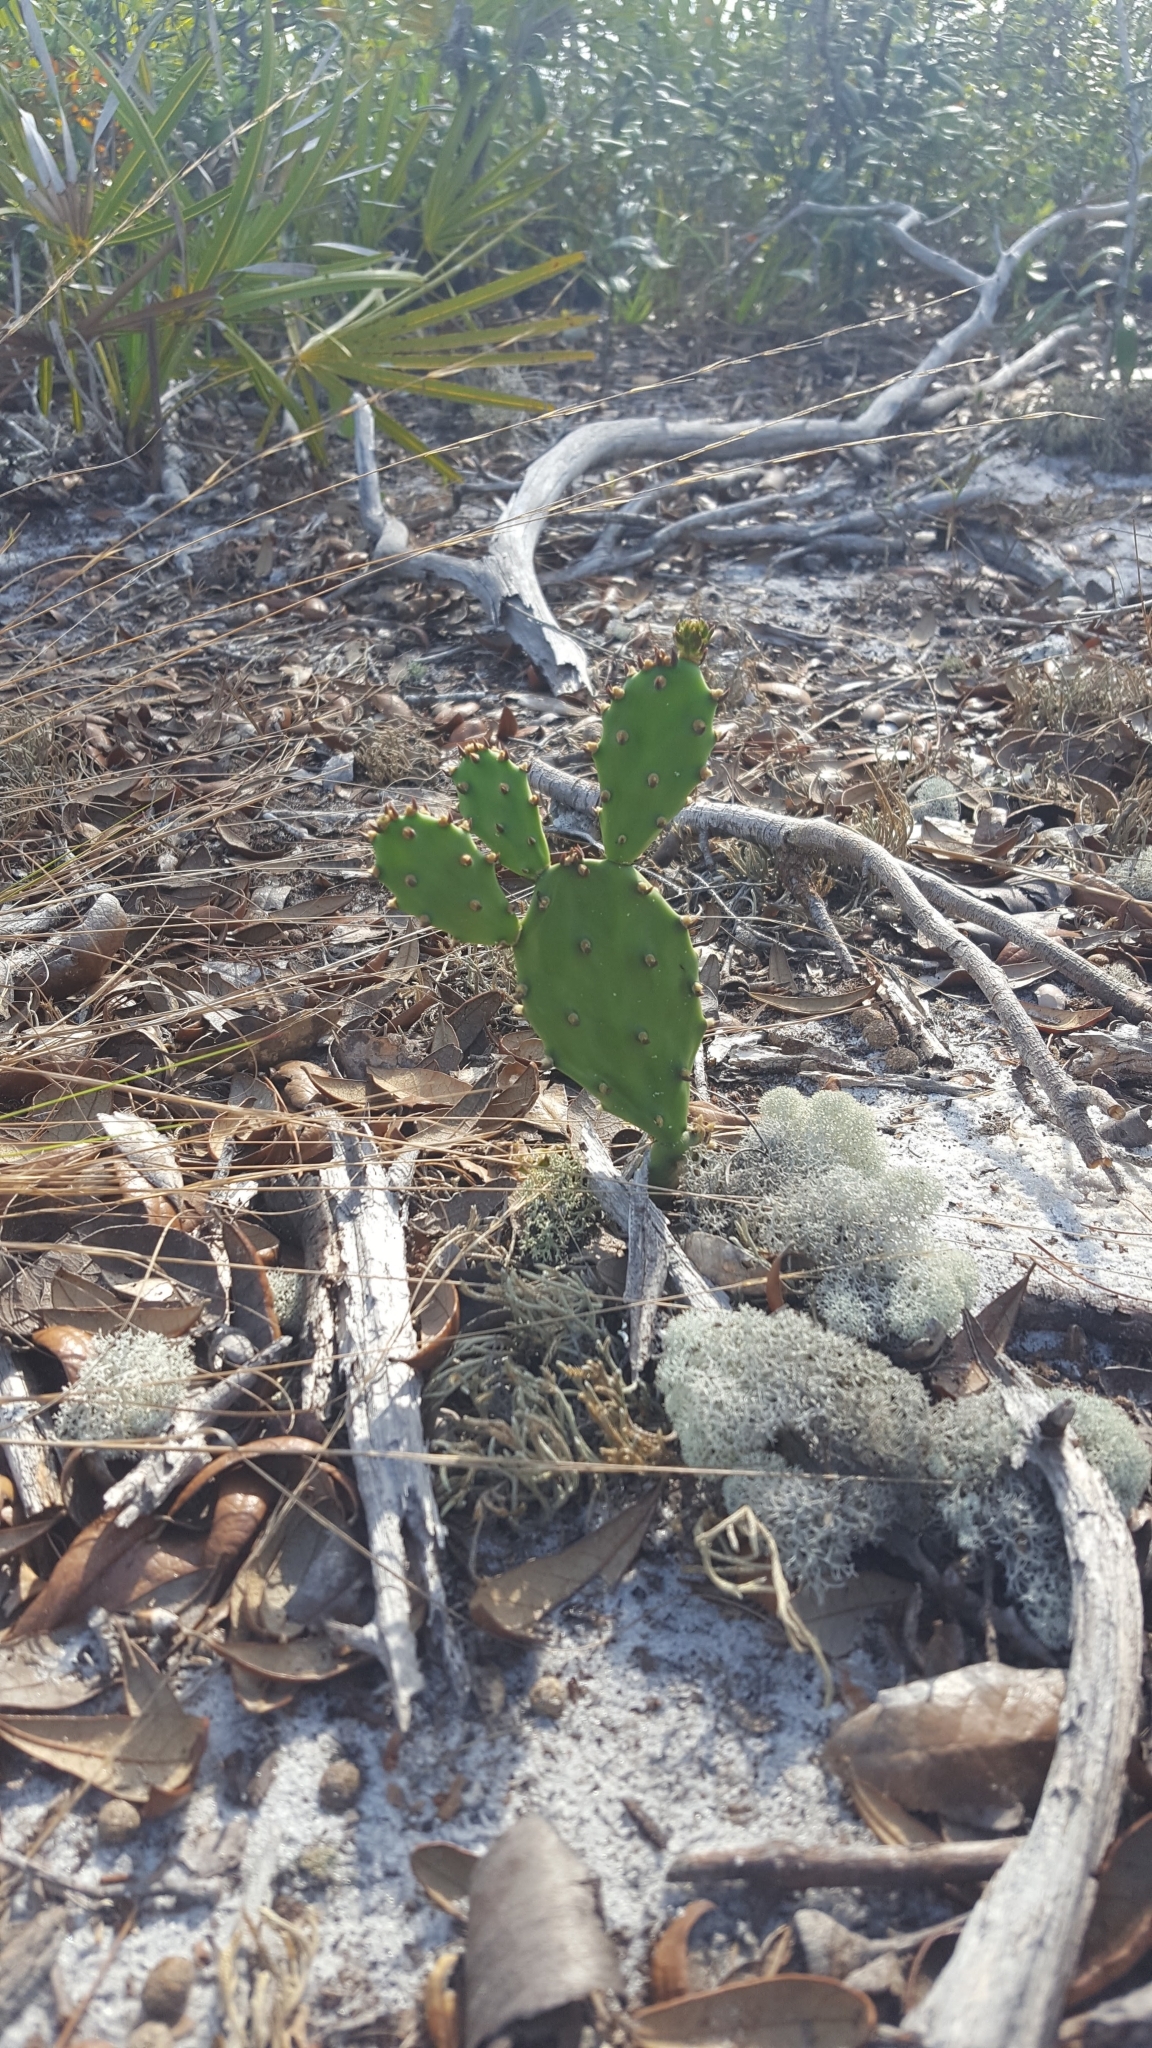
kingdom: Plantae
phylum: Tracheophyta
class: Magnoliopsida
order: Caryophyllales
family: Cactaceae
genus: Opuntia
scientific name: Opuntia austrina
